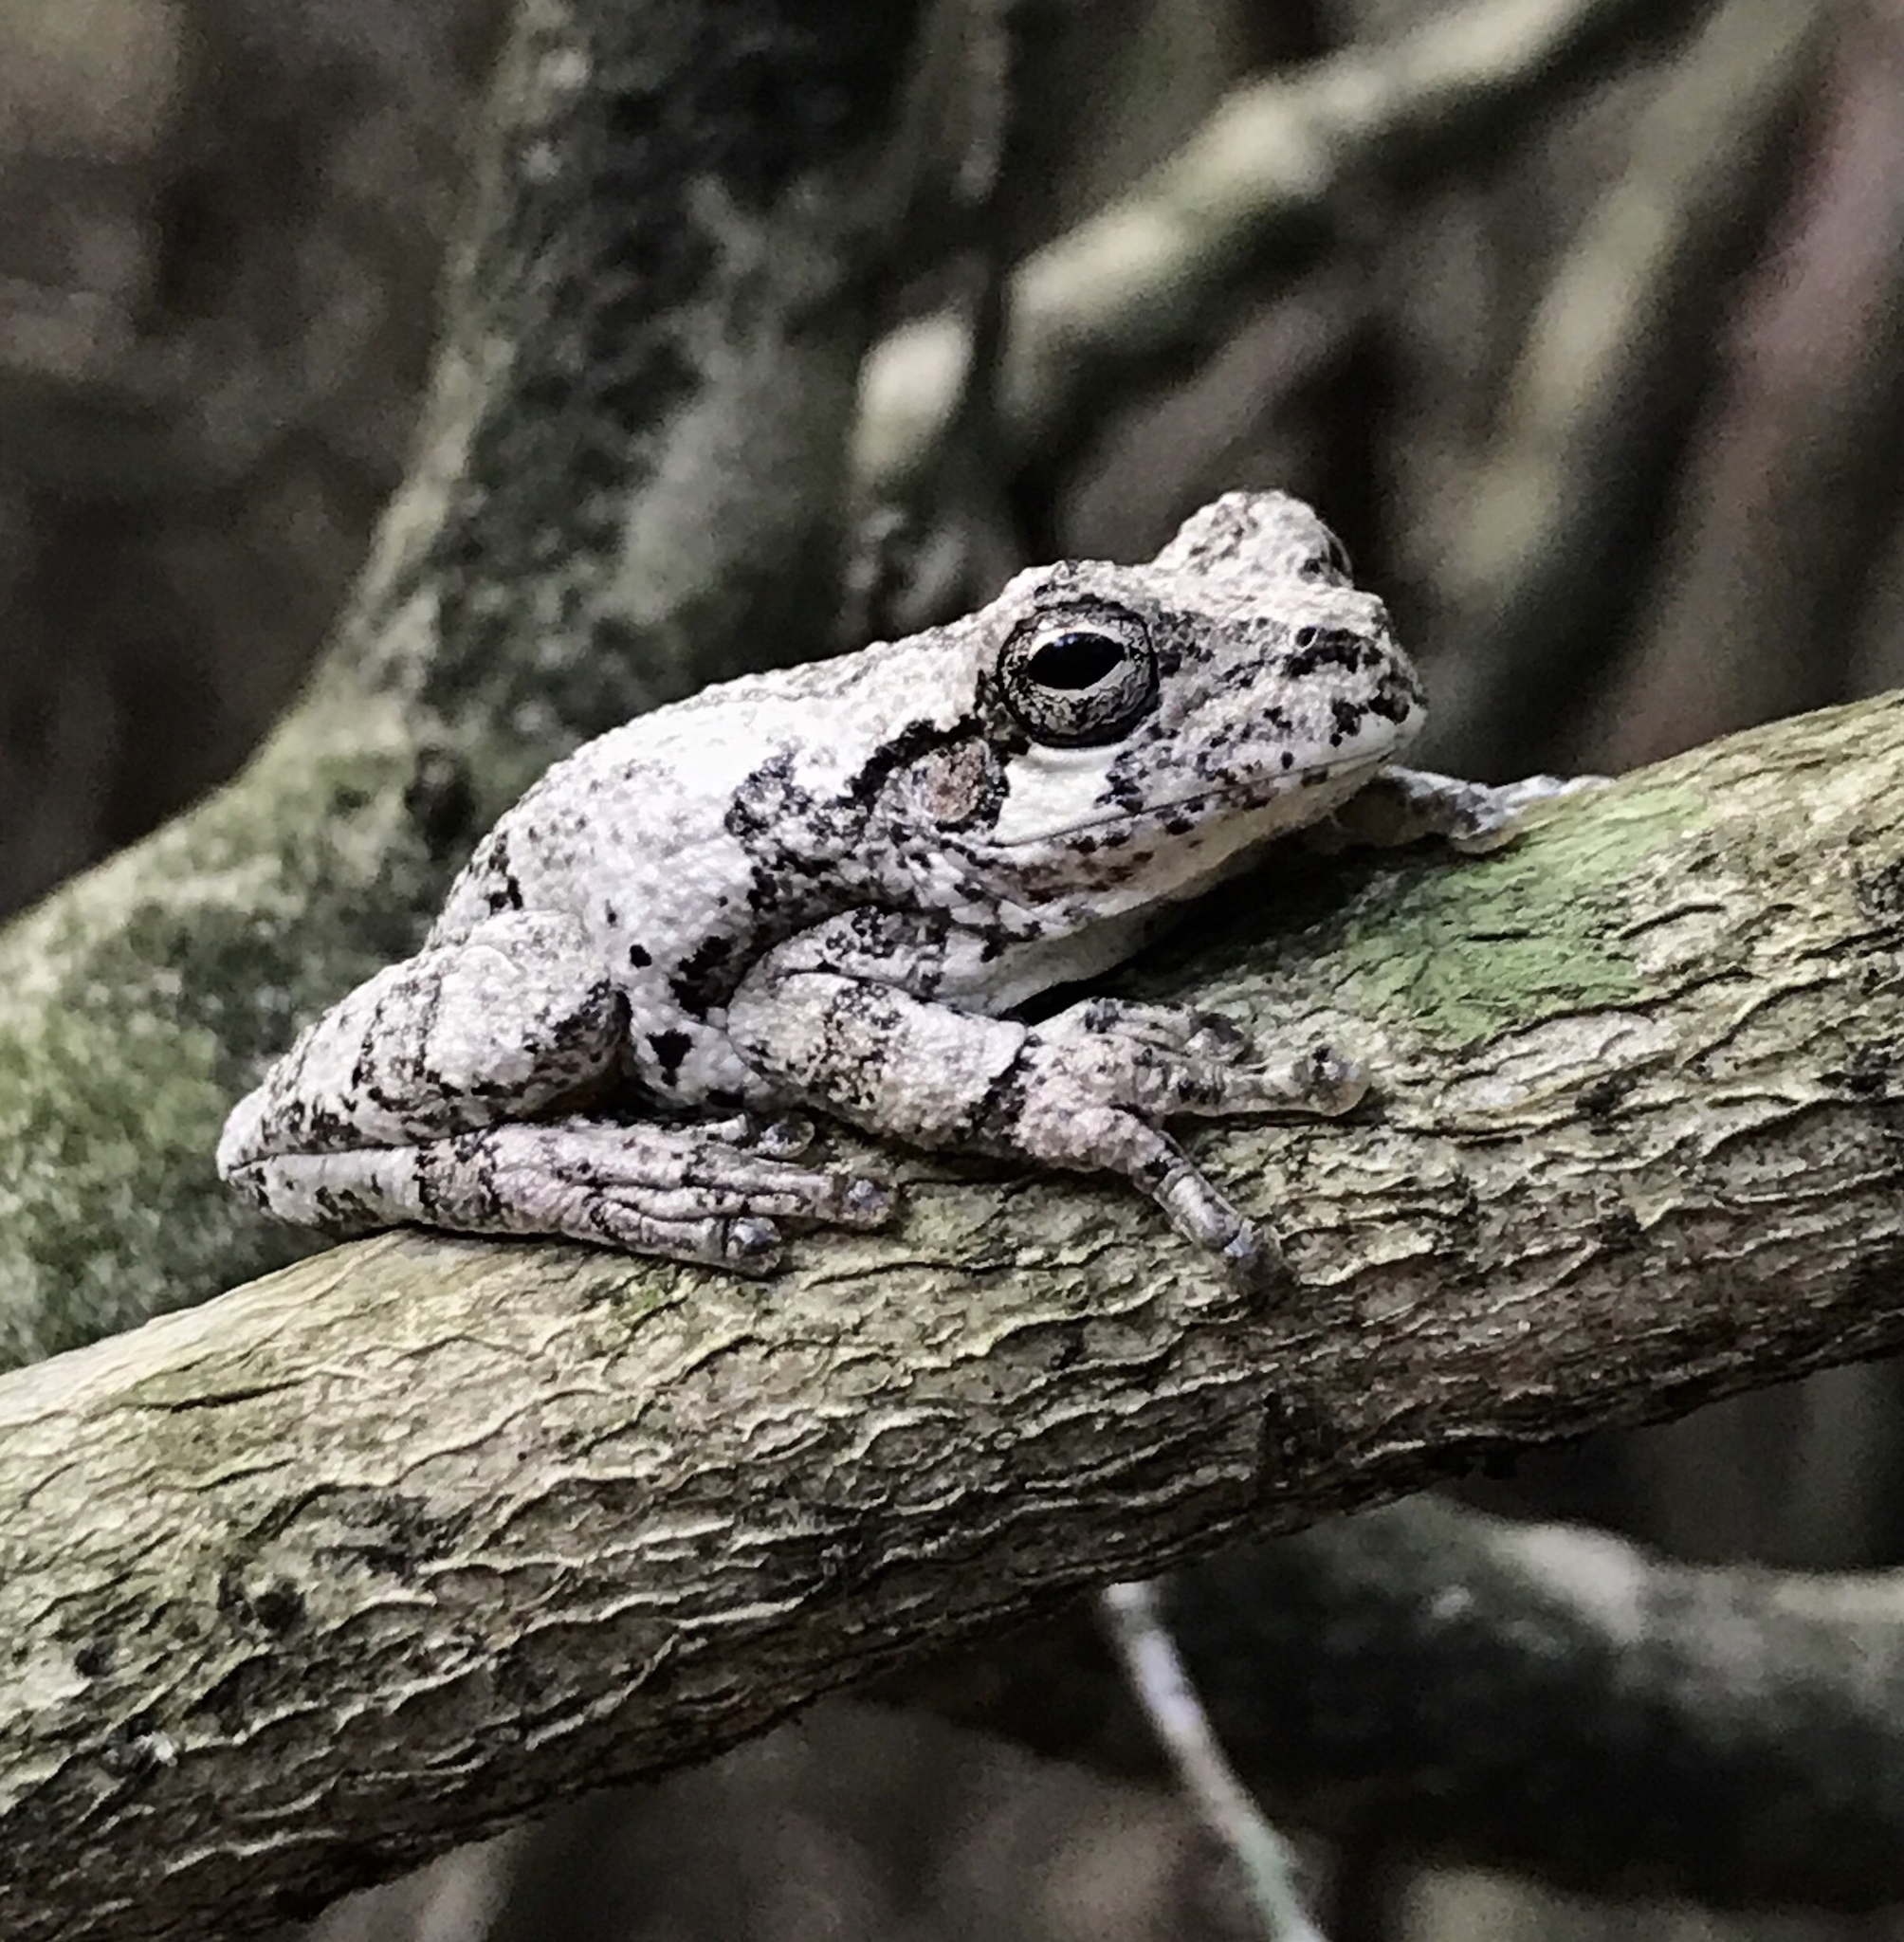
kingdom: Animalia
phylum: Chordata
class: Amphibia
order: Anura
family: Hylidae
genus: Dryophytes
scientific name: Dryophytes versicolor
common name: Gray treefrog
